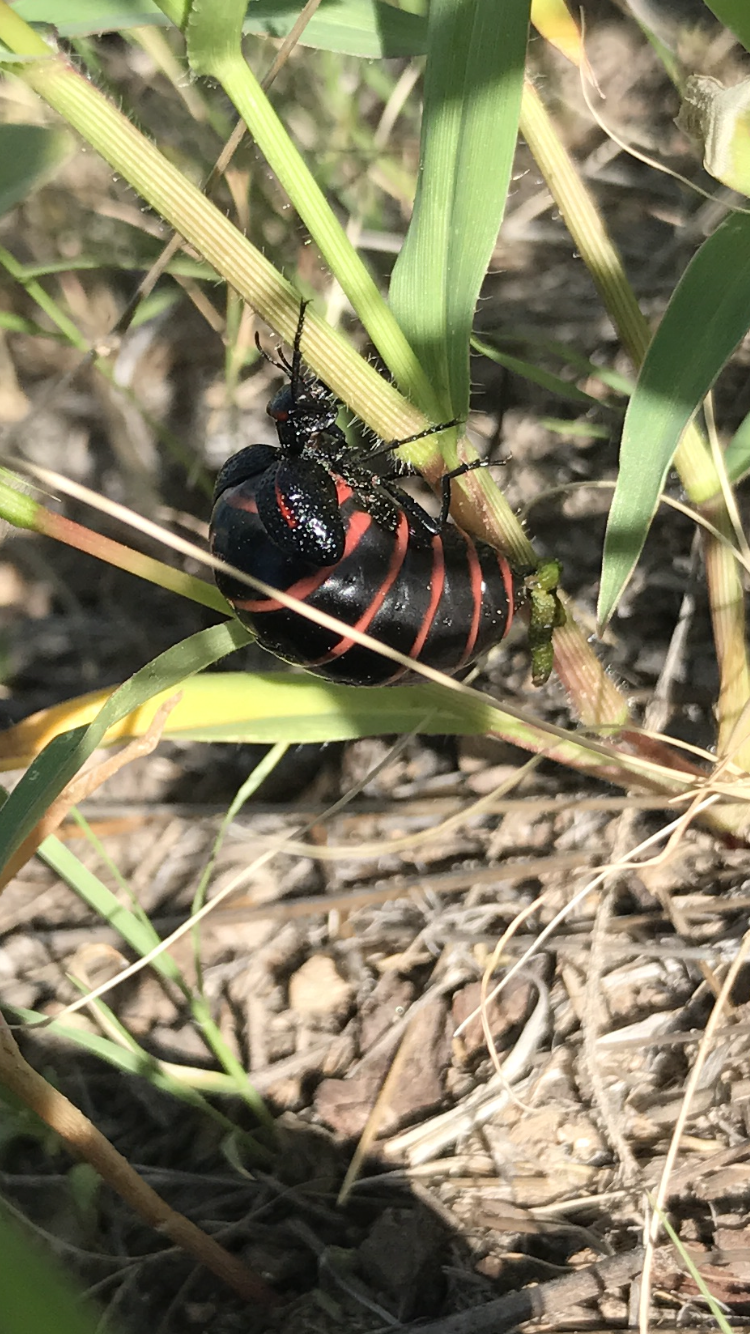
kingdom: Animalia
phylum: Arthropoda
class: Insecta
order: Coleoptera
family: Meloidae
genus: Megetra
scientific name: Megetra punctata
